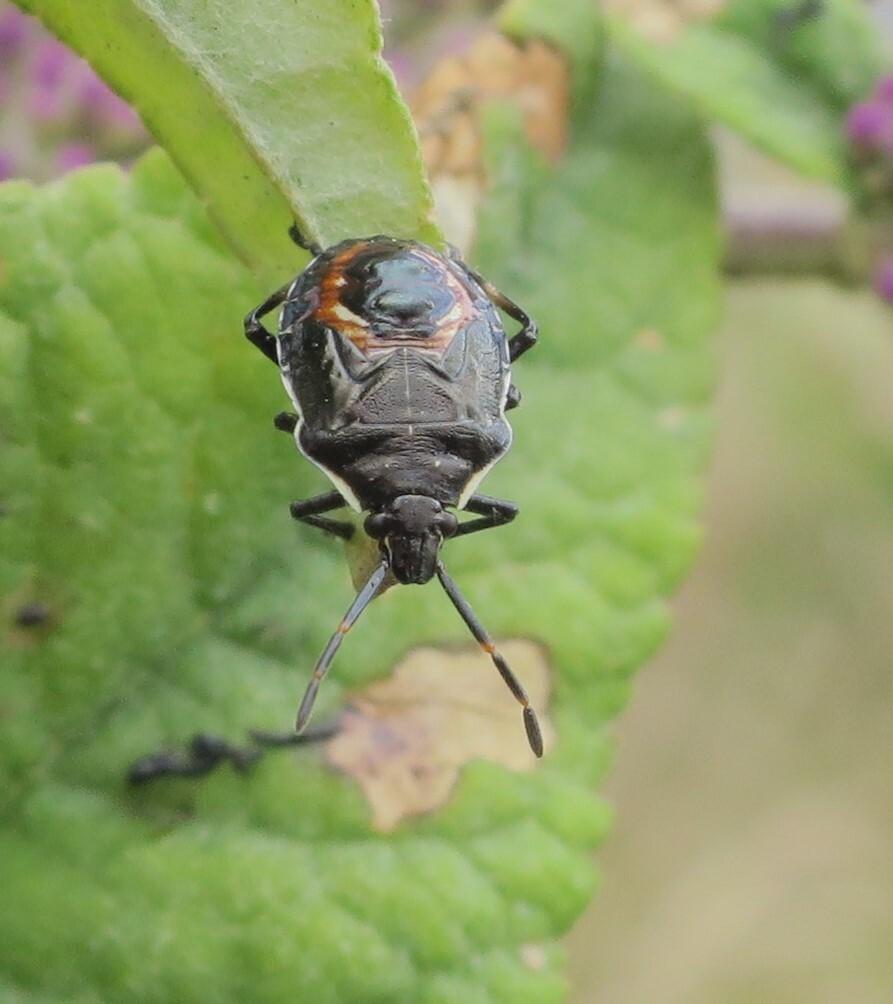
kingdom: Animalia
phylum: Arthropoda
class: Insecta
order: Hemiptera
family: Pentatomidae
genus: Oechalia
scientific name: Oechalia schellenbergii
